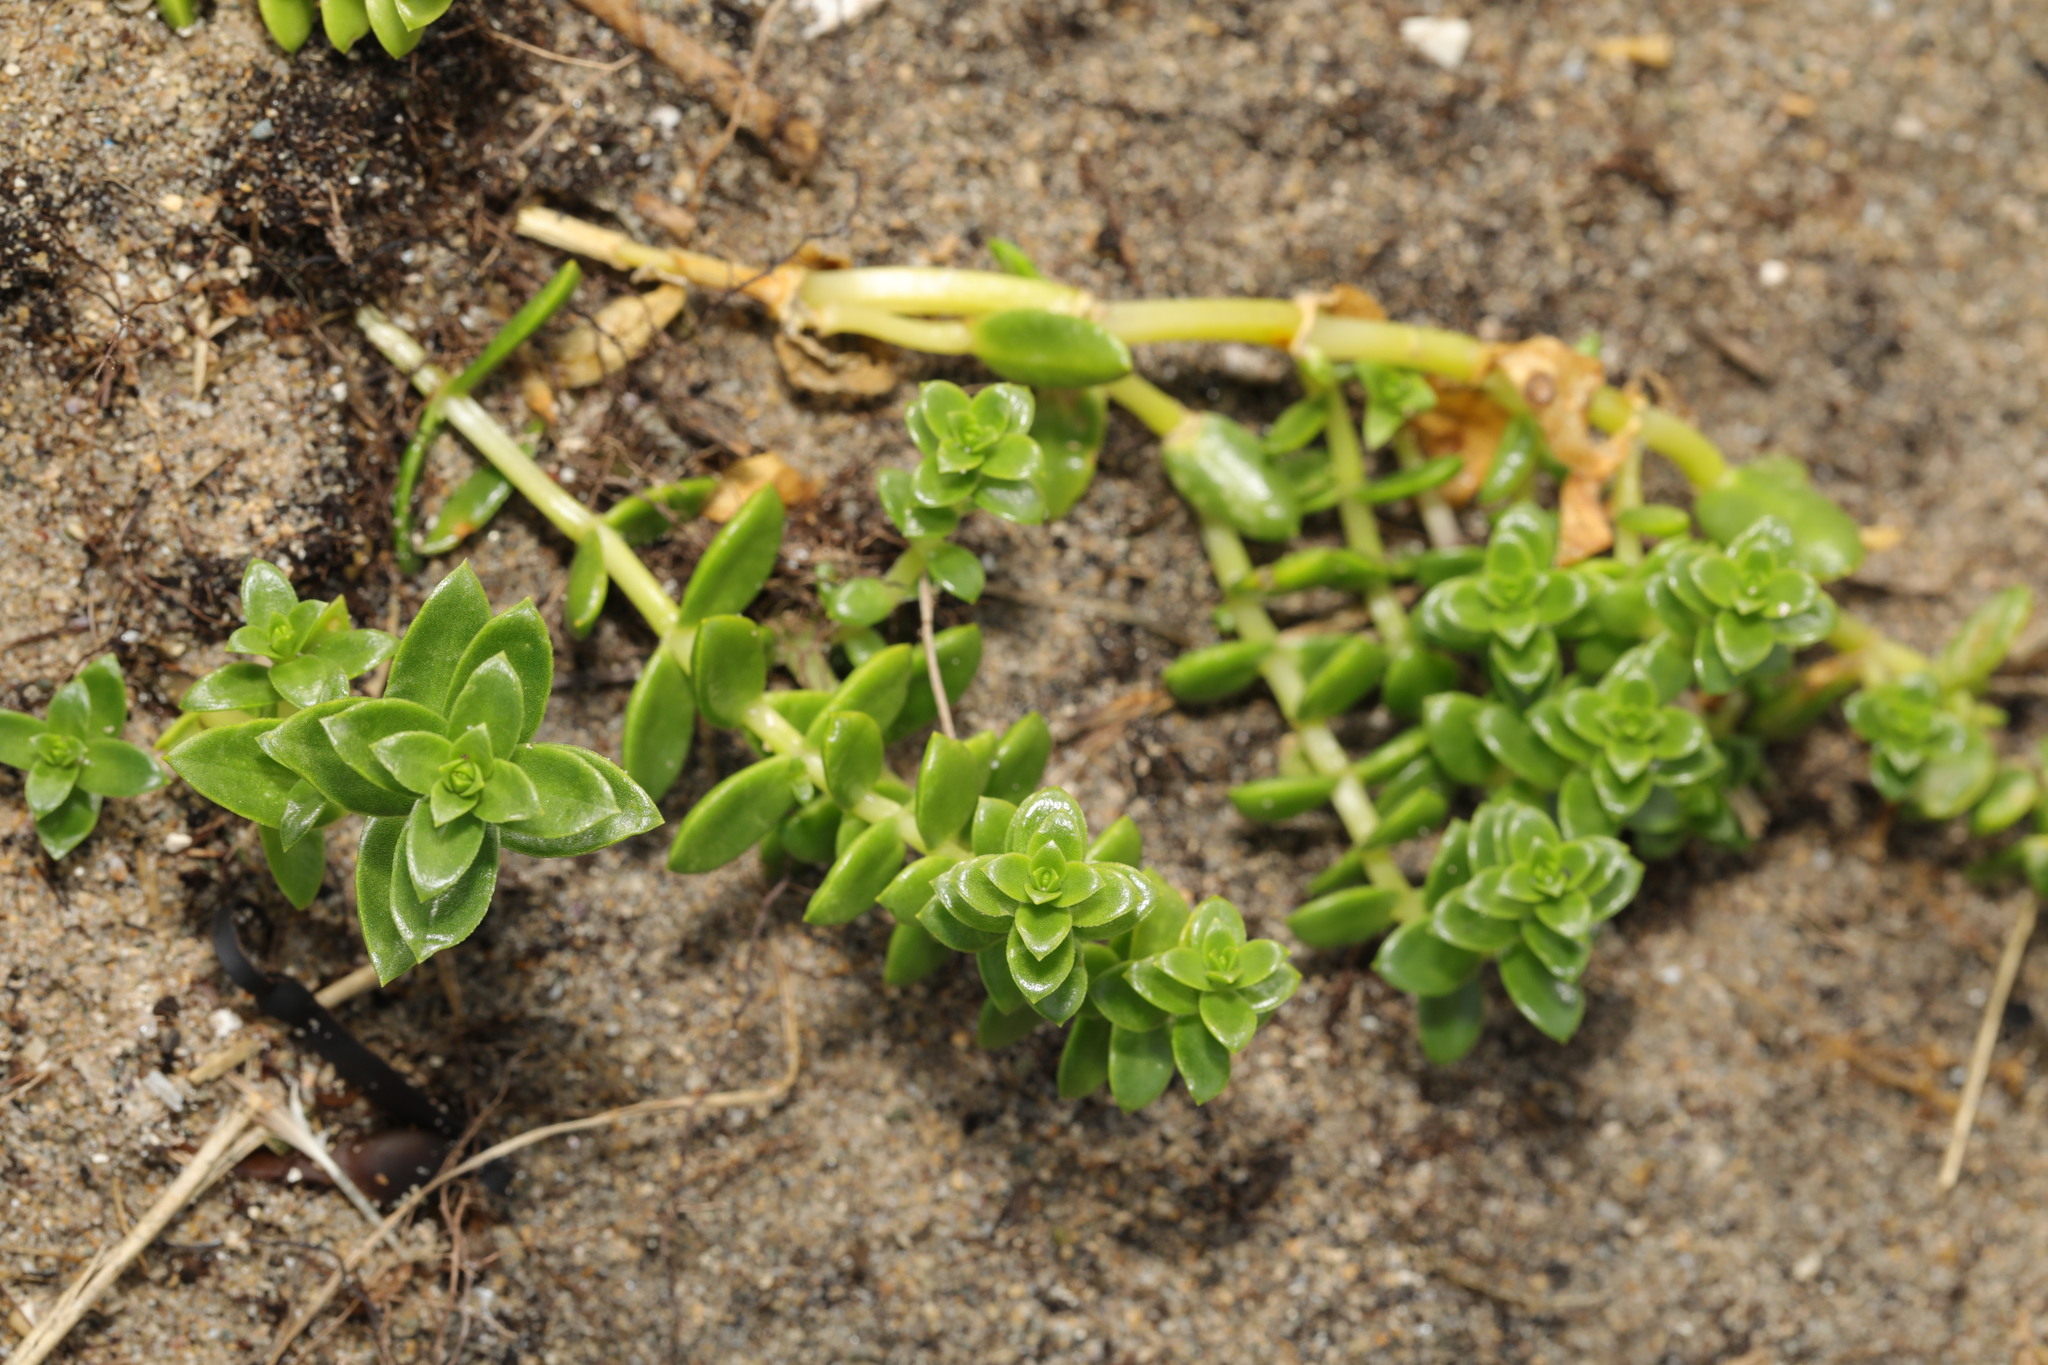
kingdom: Plantae
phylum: Tracheophyta
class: Magnoliopsida
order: Caryophyllales
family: Caryophyllaceae
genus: Honckenya
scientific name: Honckenya peploides
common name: Sea sandwort
